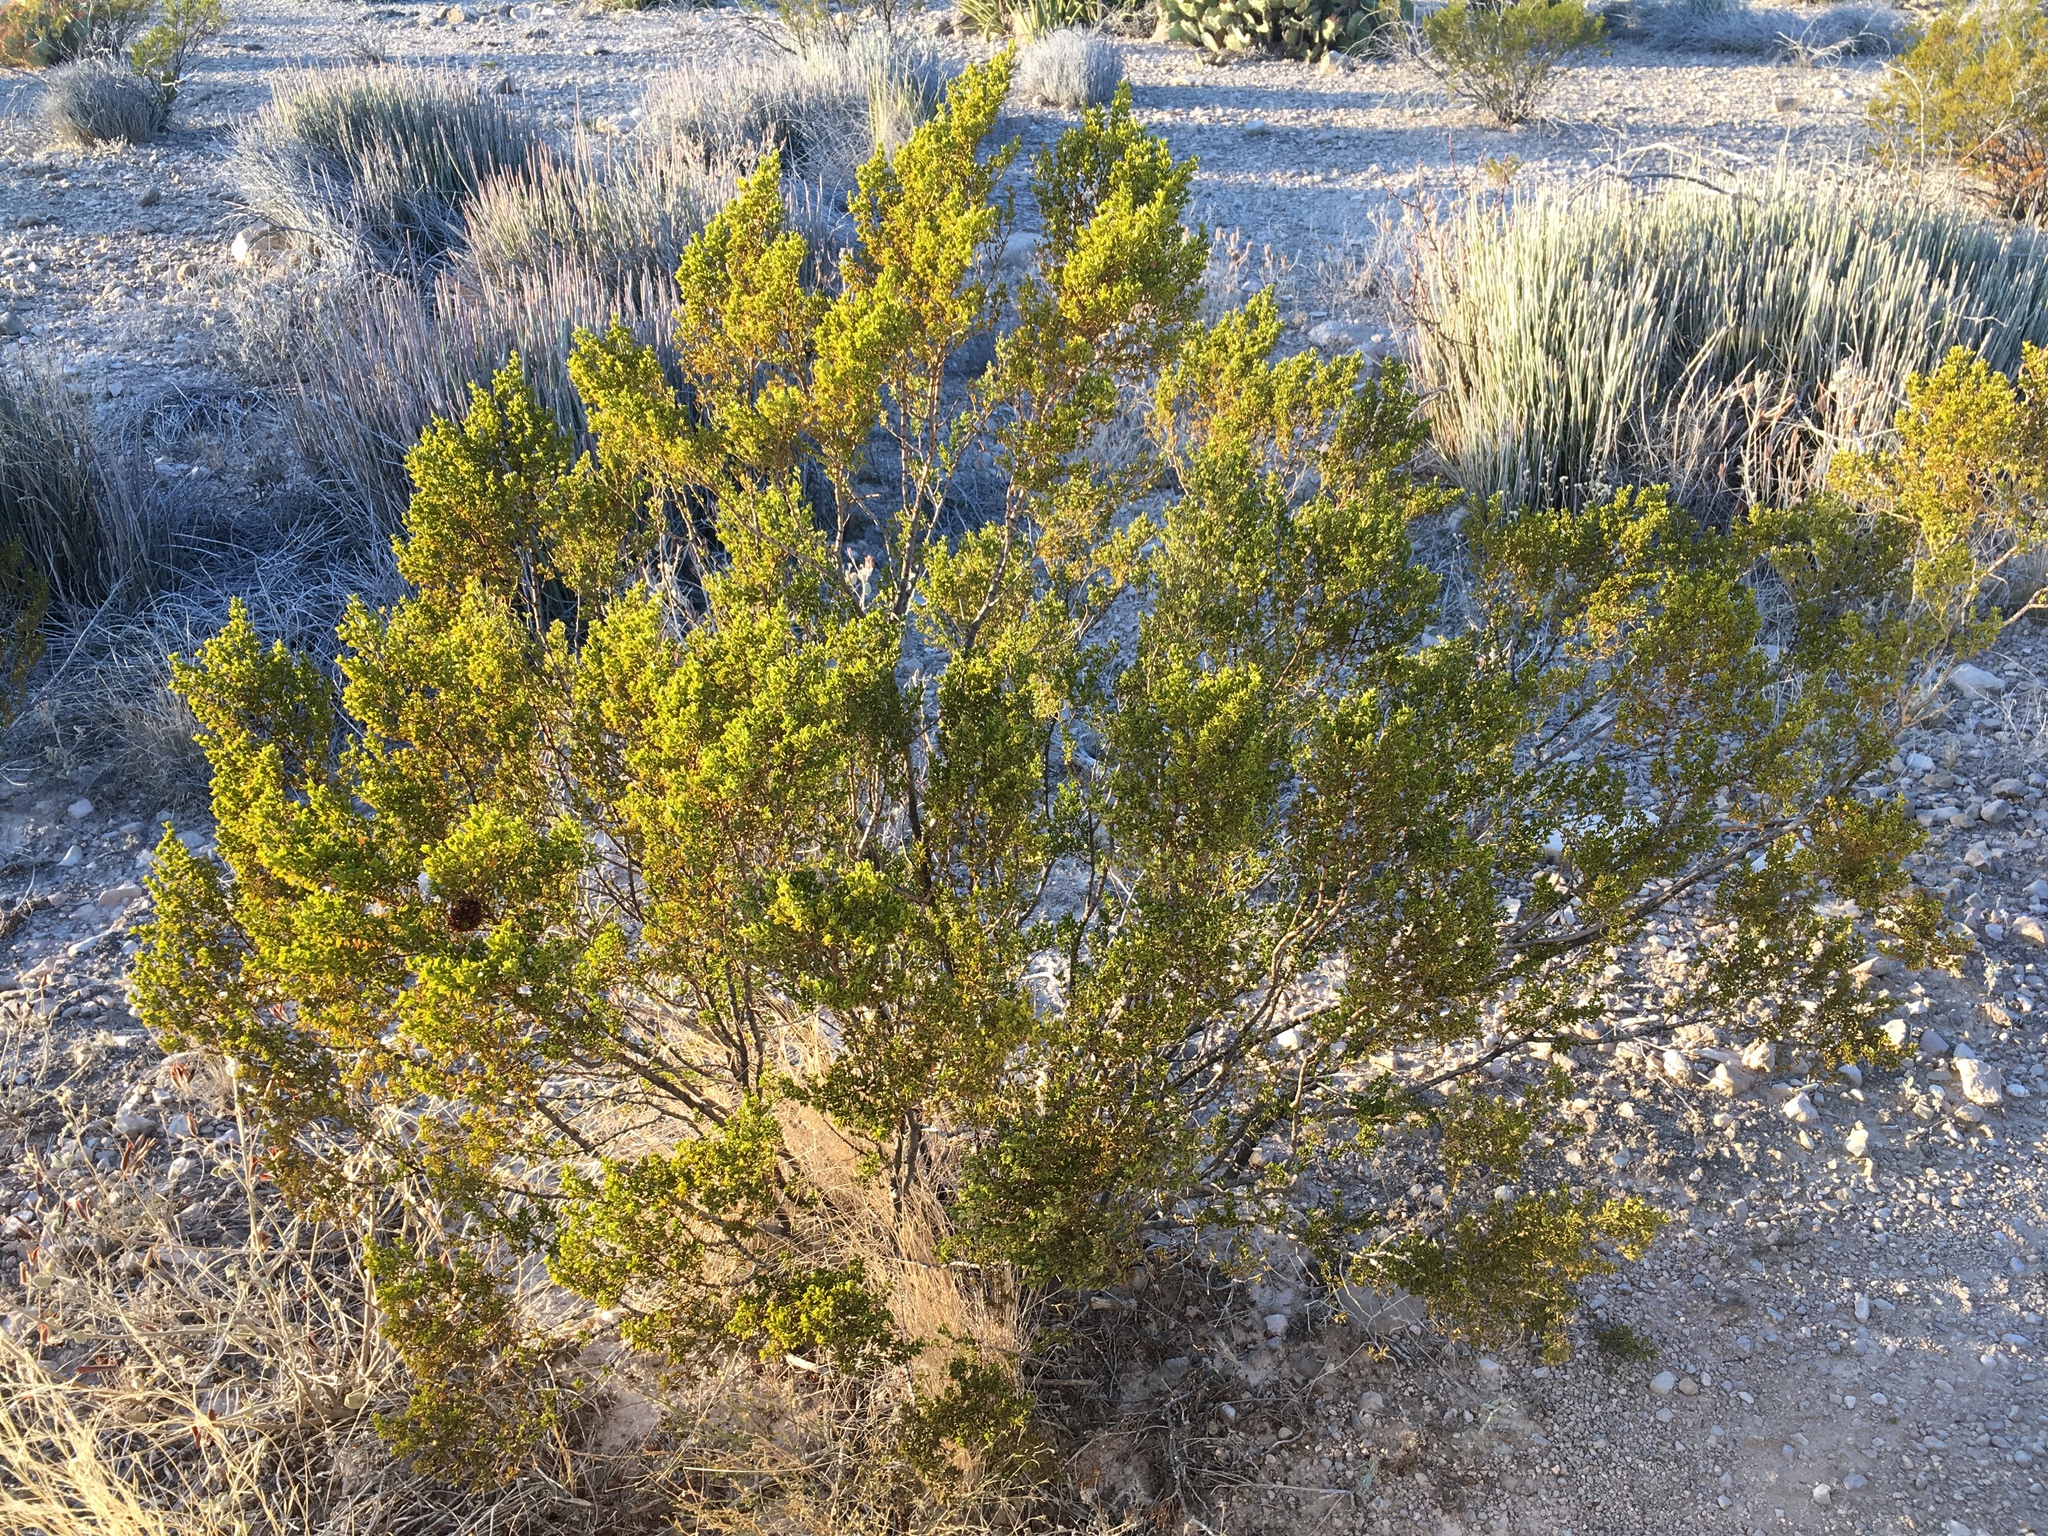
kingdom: Plantae
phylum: Tracheophyta
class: Magnoliopsida
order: Zygophyllales
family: Zygophyllaceae
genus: Larrea
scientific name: Larrea tridentata
